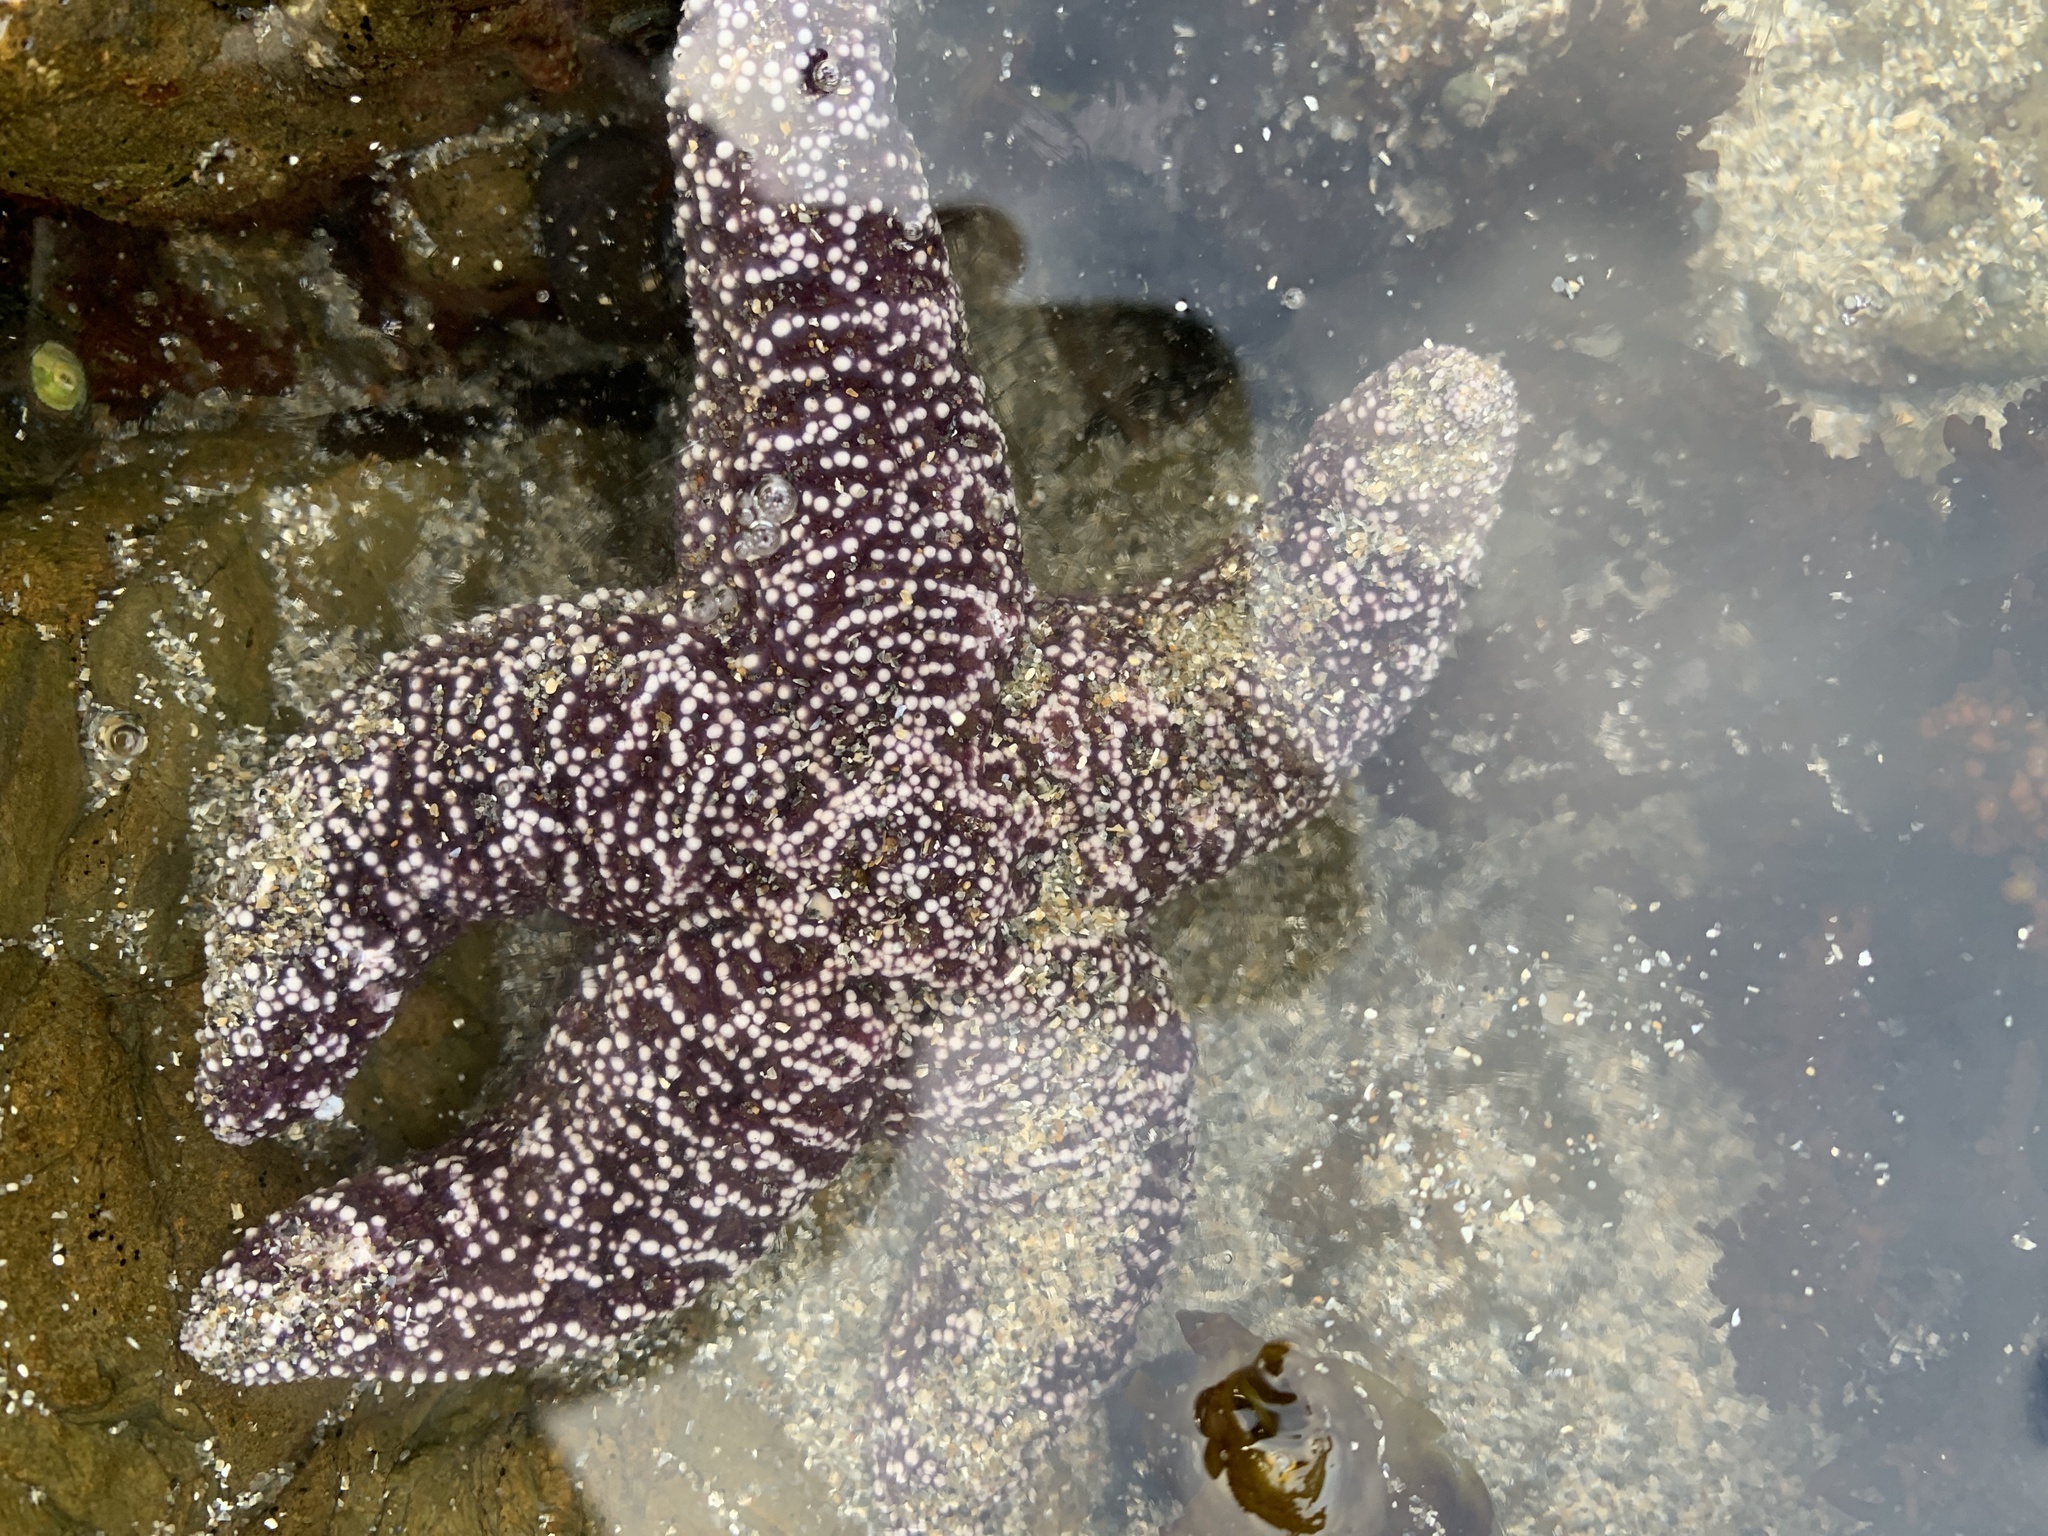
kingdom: Animalia
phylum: Echinodermata
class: Asteroidea
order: Forcipulatida
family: Asteriidae
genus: Pisaster
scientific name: Pisaster ochraceus
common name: Ochre stars
